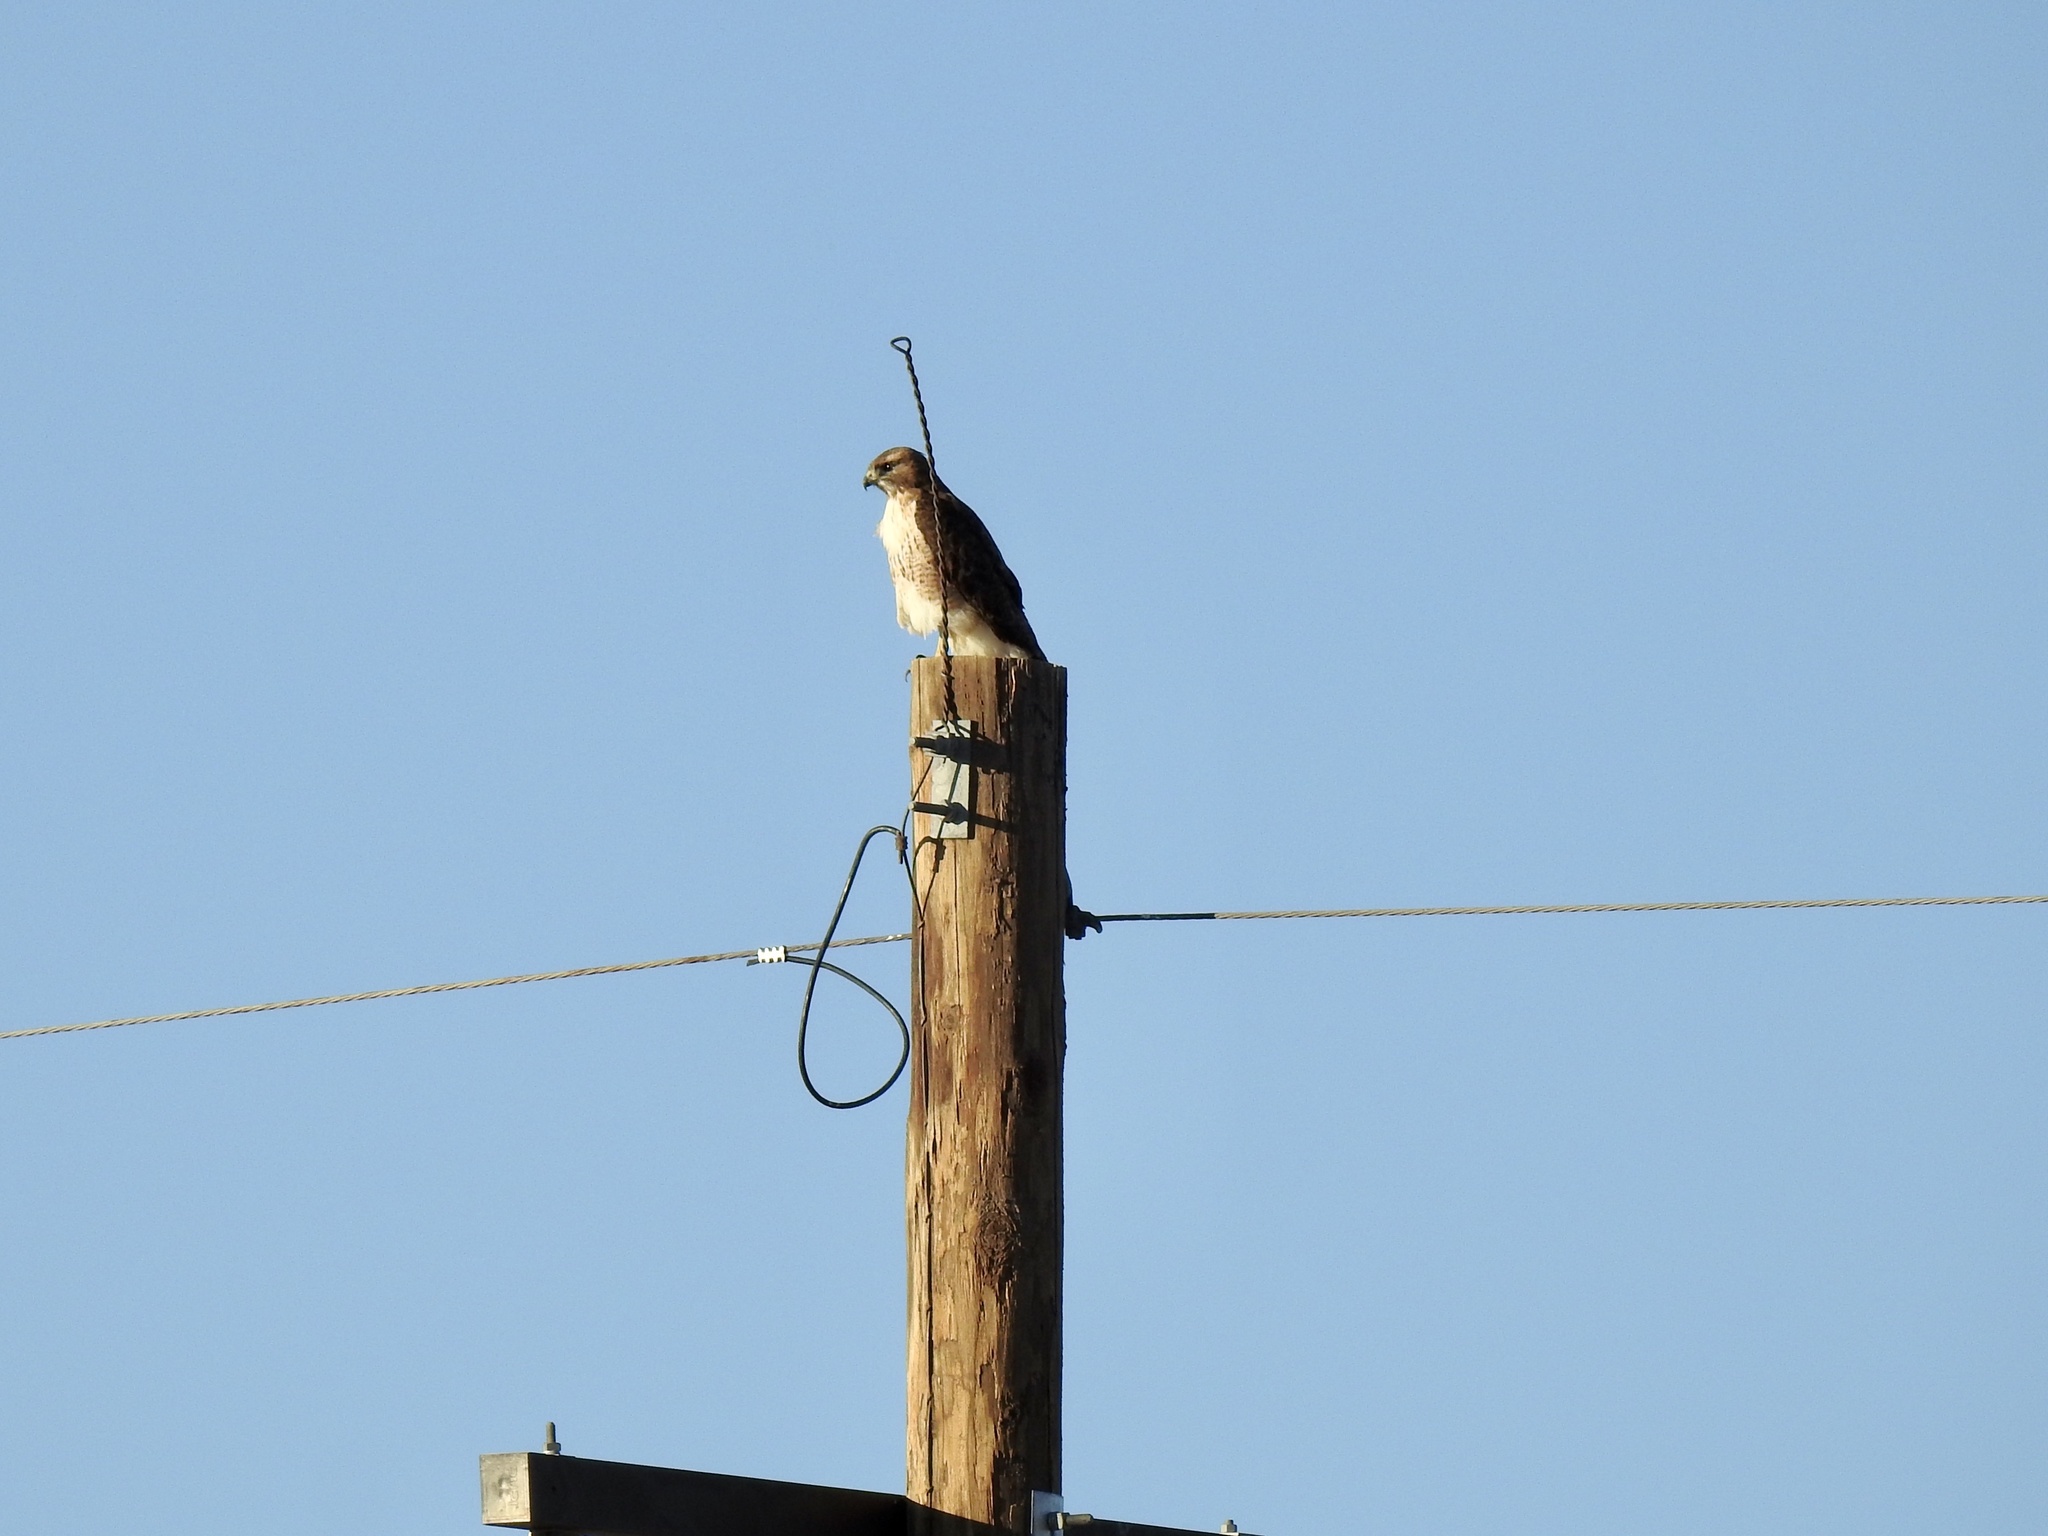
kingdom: Animalia
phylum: Chordata
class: Aves
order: Accipitriformes
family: Accipitridae
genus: Buteo
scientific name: Buteo jamaicensis
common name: Red-tailed hawk
